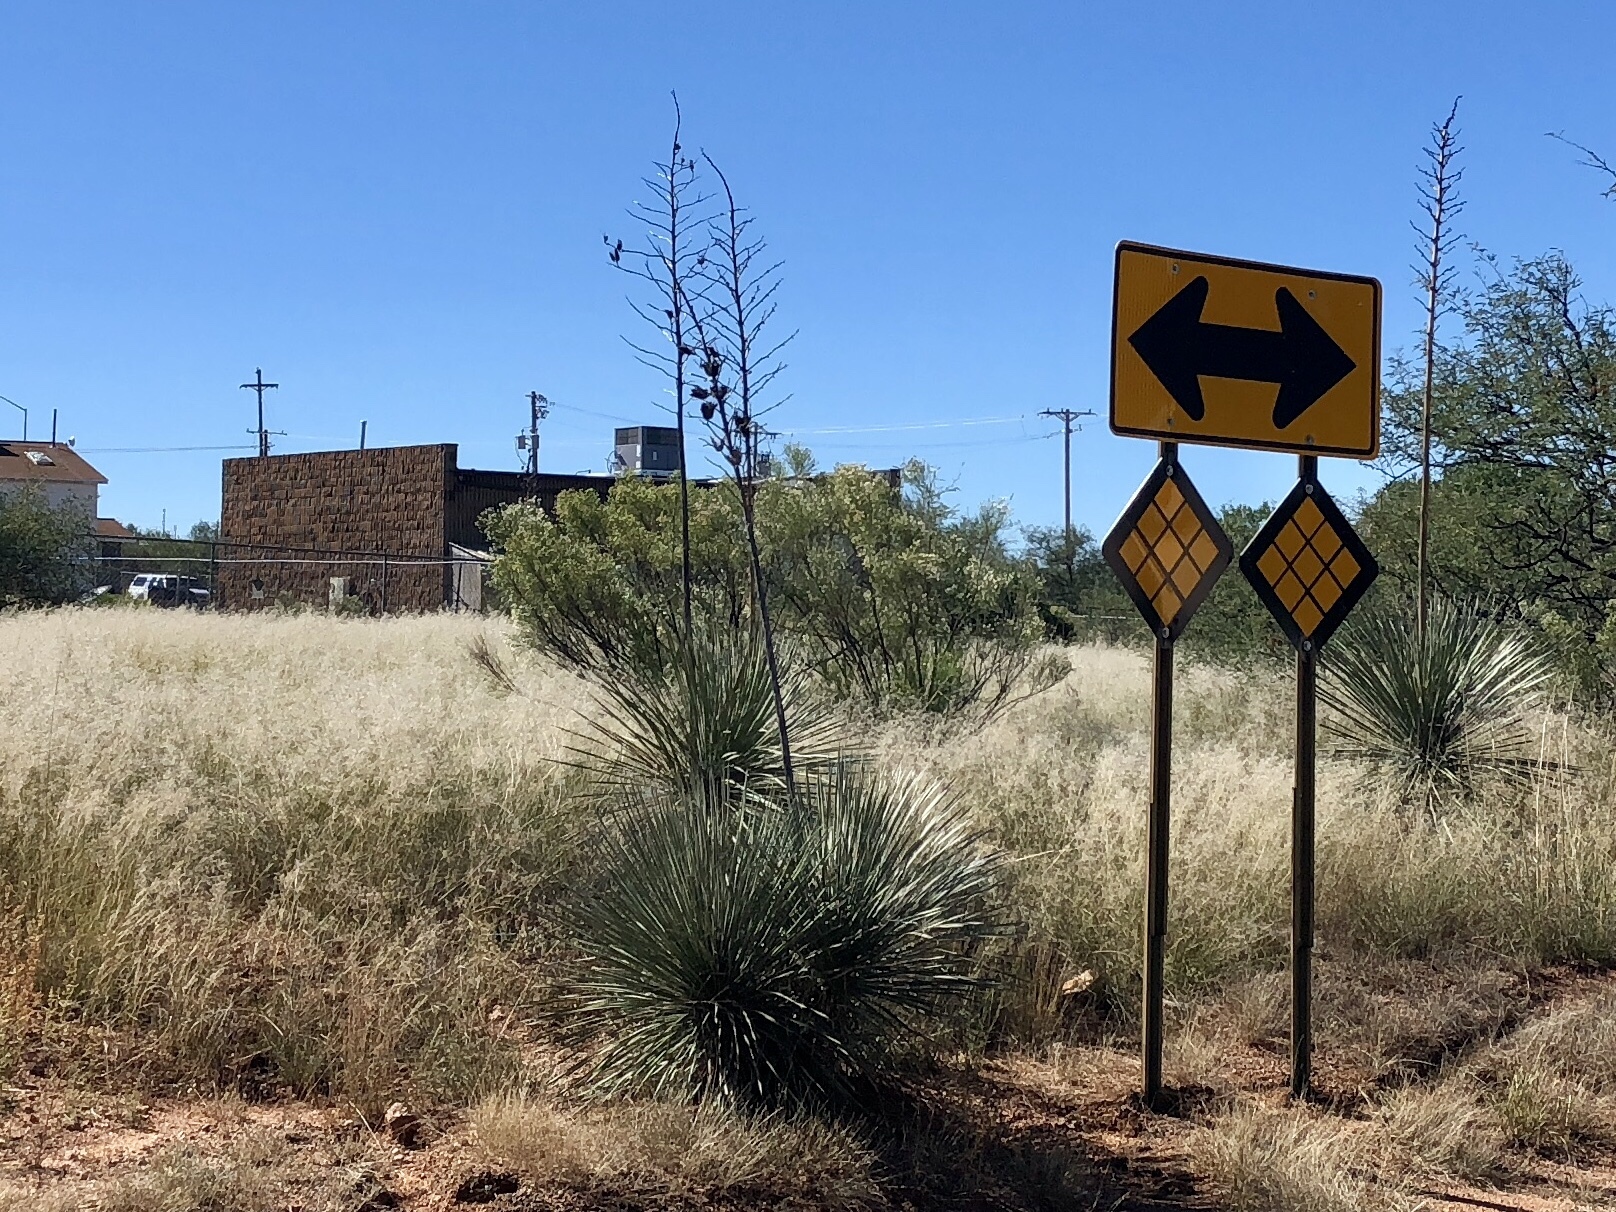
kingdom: Plantae
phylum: Tracheophyta
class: Liliopsida
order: Asparagales
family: Asparagaceae
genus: Yucca
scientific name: Yucca elata
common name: Palmella
